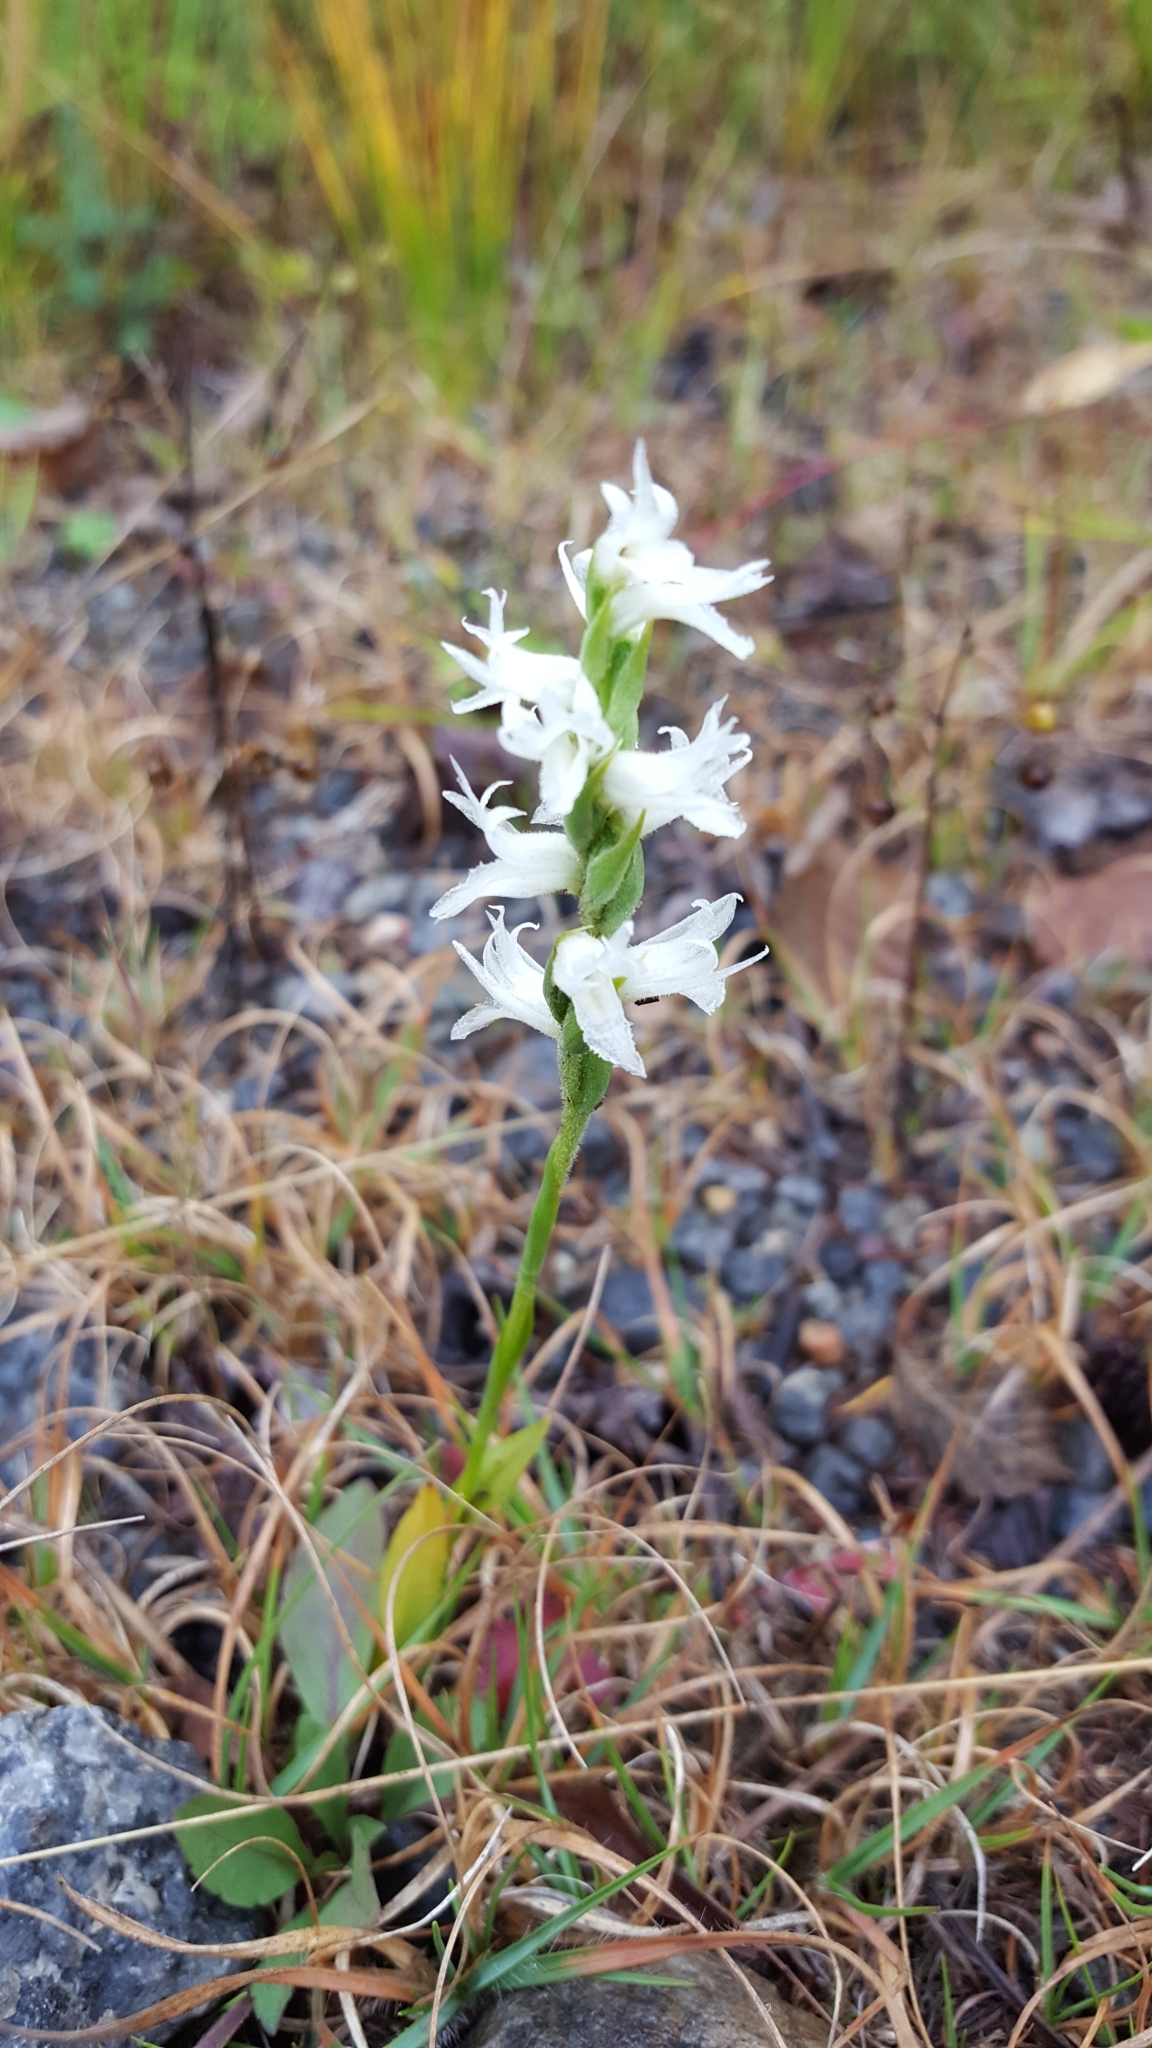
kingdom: Plantae
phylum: Tracheophyta
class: Liliopsida
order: Asparagales
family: Orchidaceae
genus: Spiranthes
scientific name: Spiranthes incurva
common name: Sphinx ladies'-tresses
